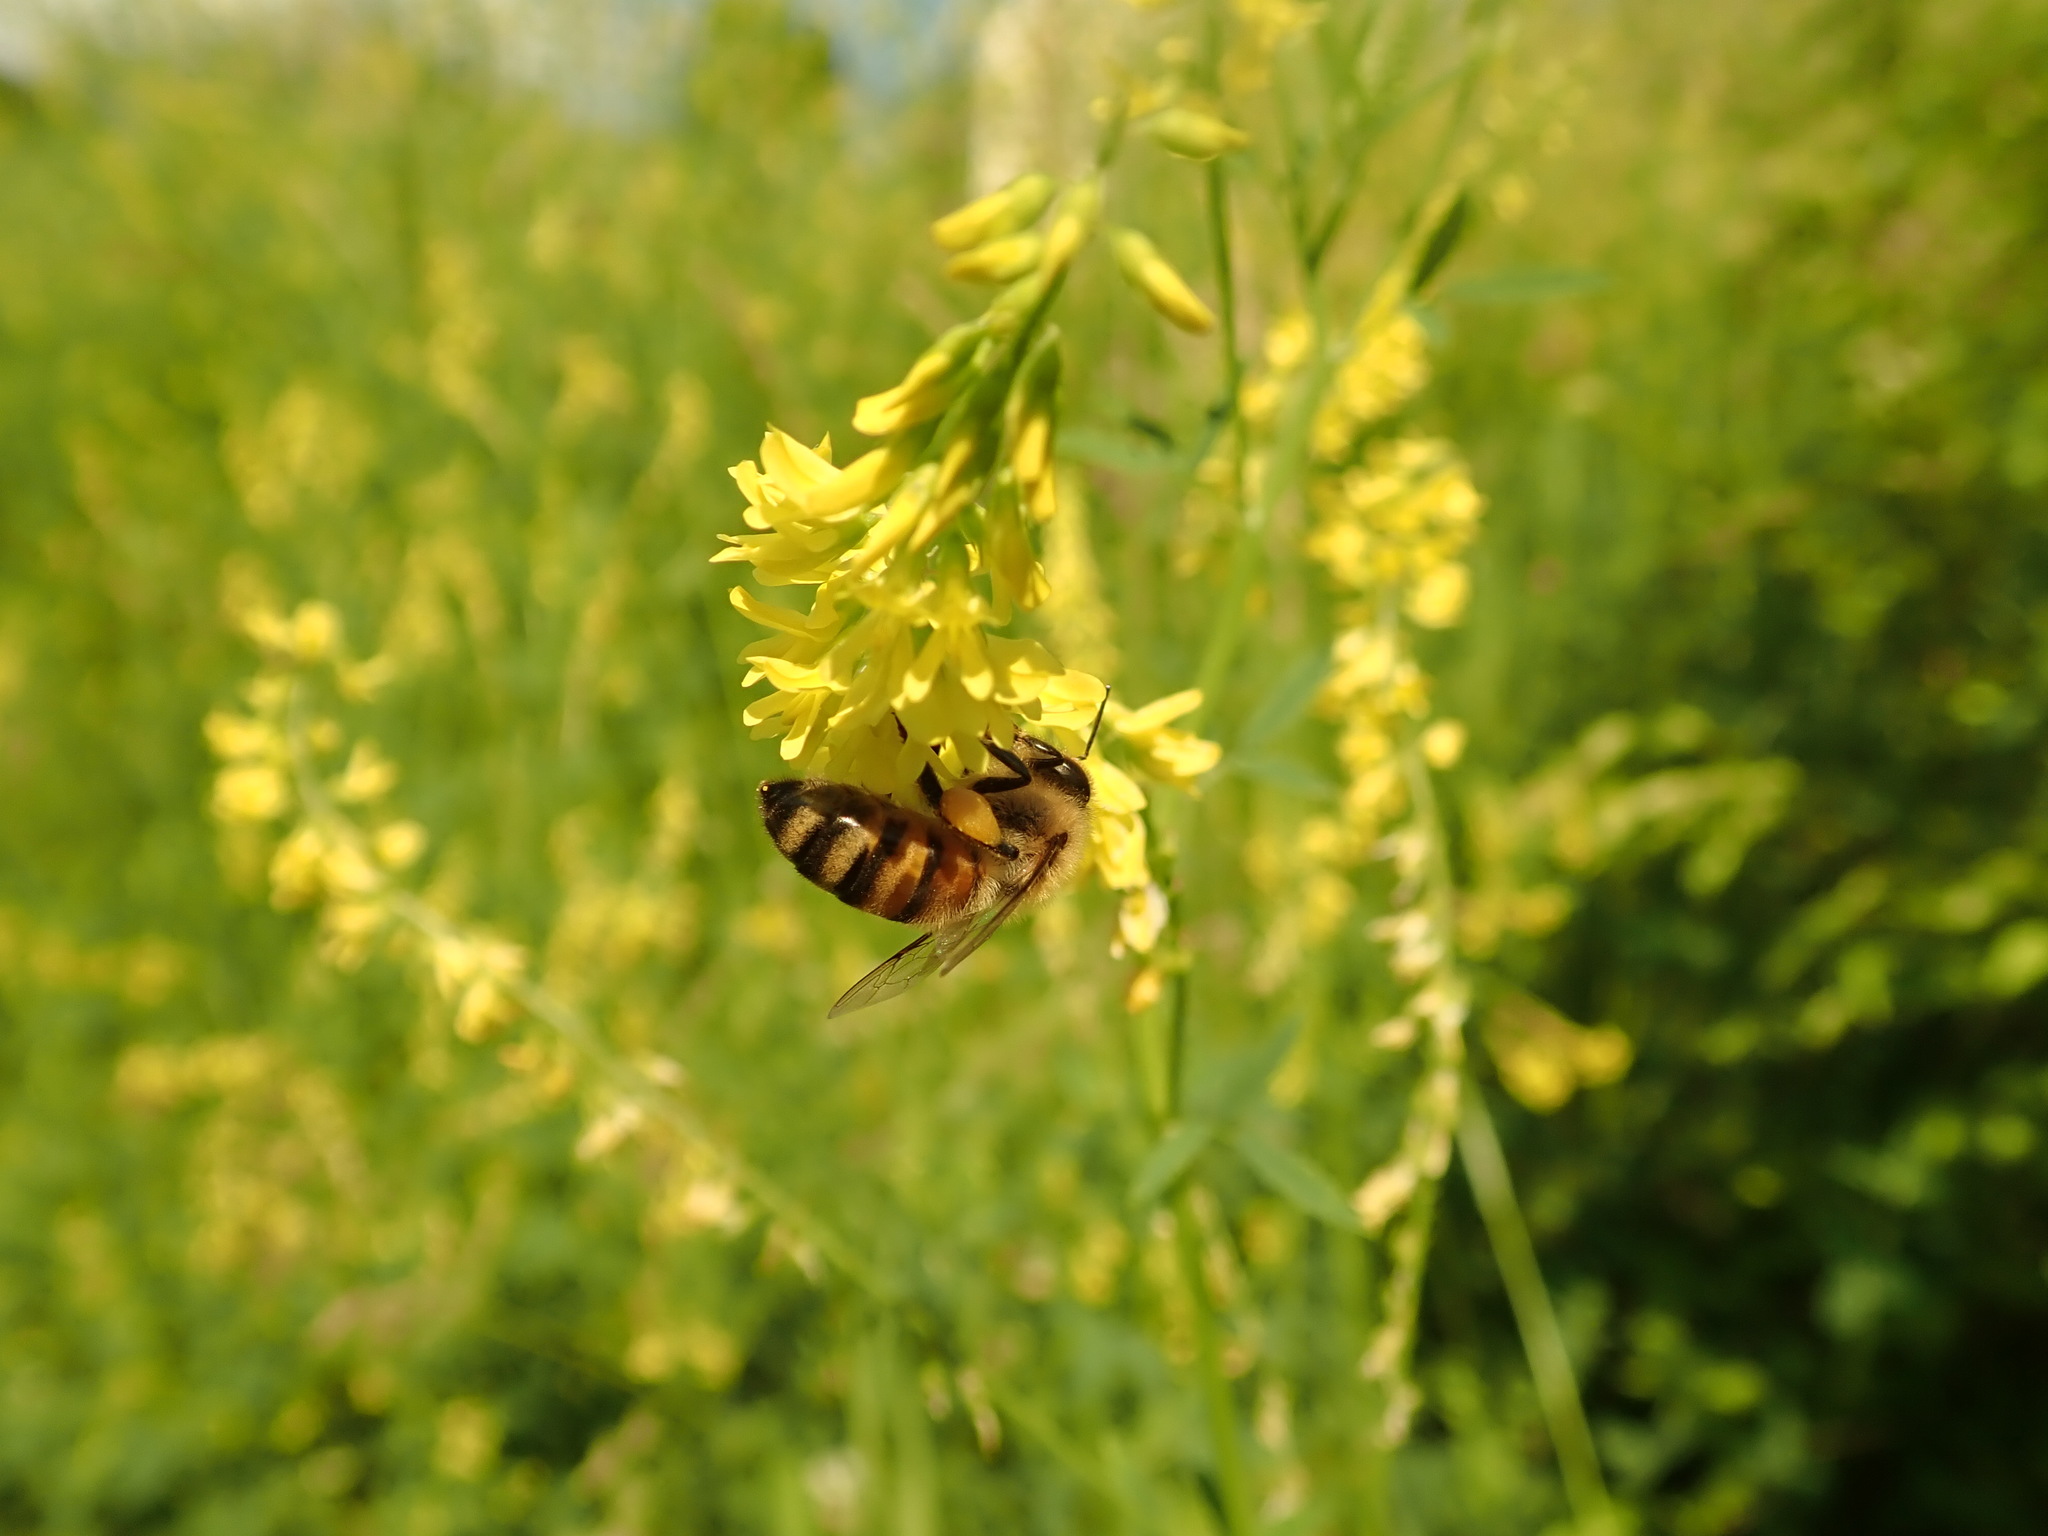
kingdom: Animalia
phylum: Arthropoda
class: Insecta
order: Hymenoptera
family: Apidae
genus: Apis
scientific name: Apis mellifera
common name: Honey bee
